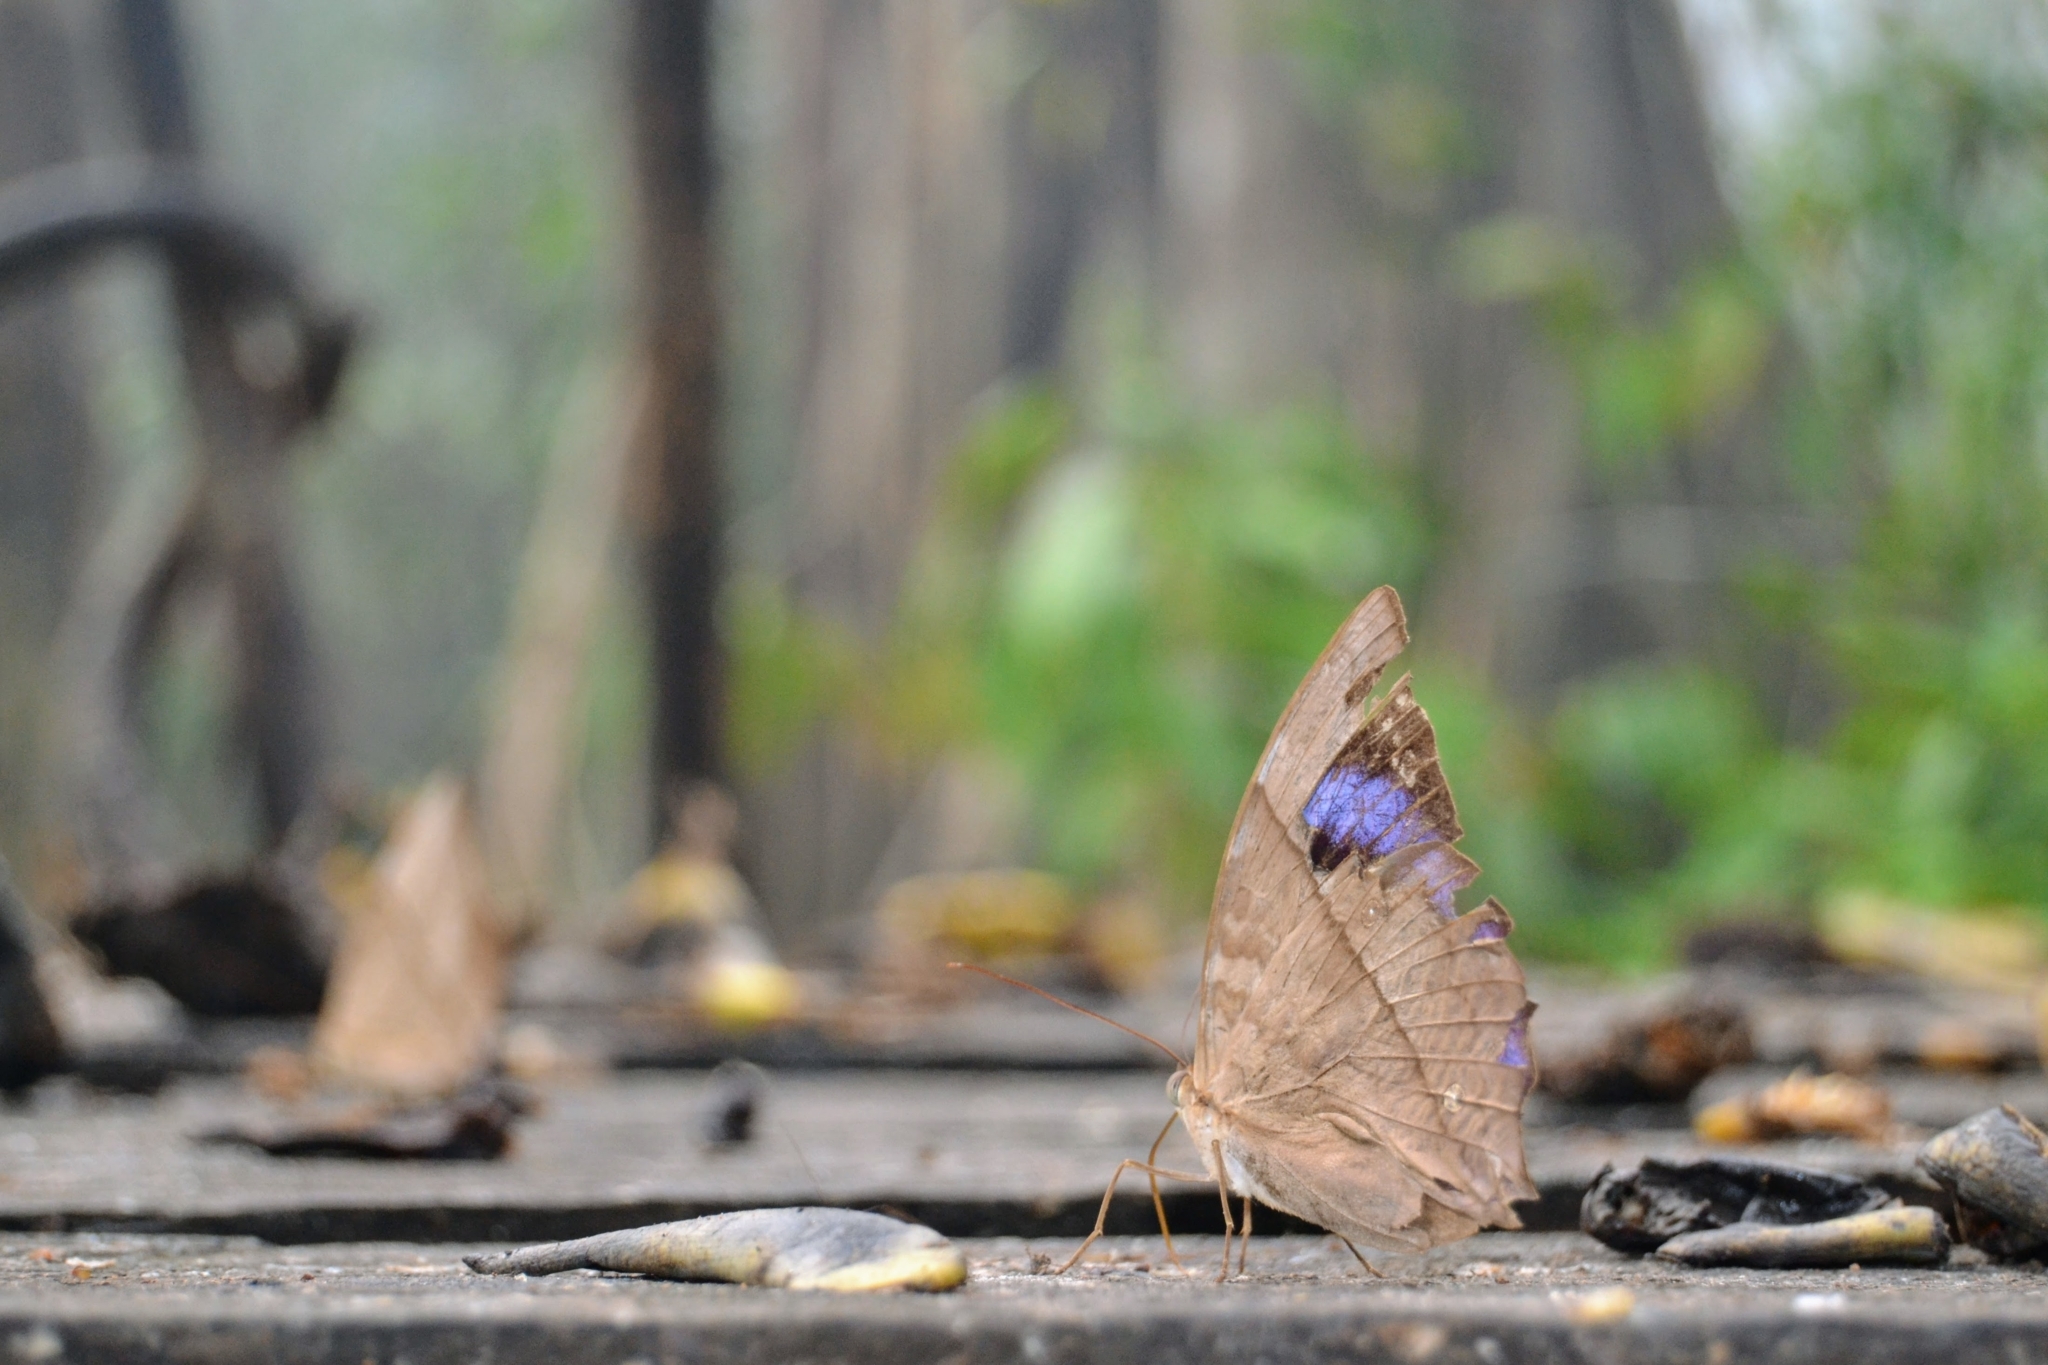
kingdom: Animalia
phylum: Arthropoda
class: Insecta
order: Lepidoptera
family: Nymphalidae
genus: Zeuxidia
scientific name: Zeuxidia doubledaii
